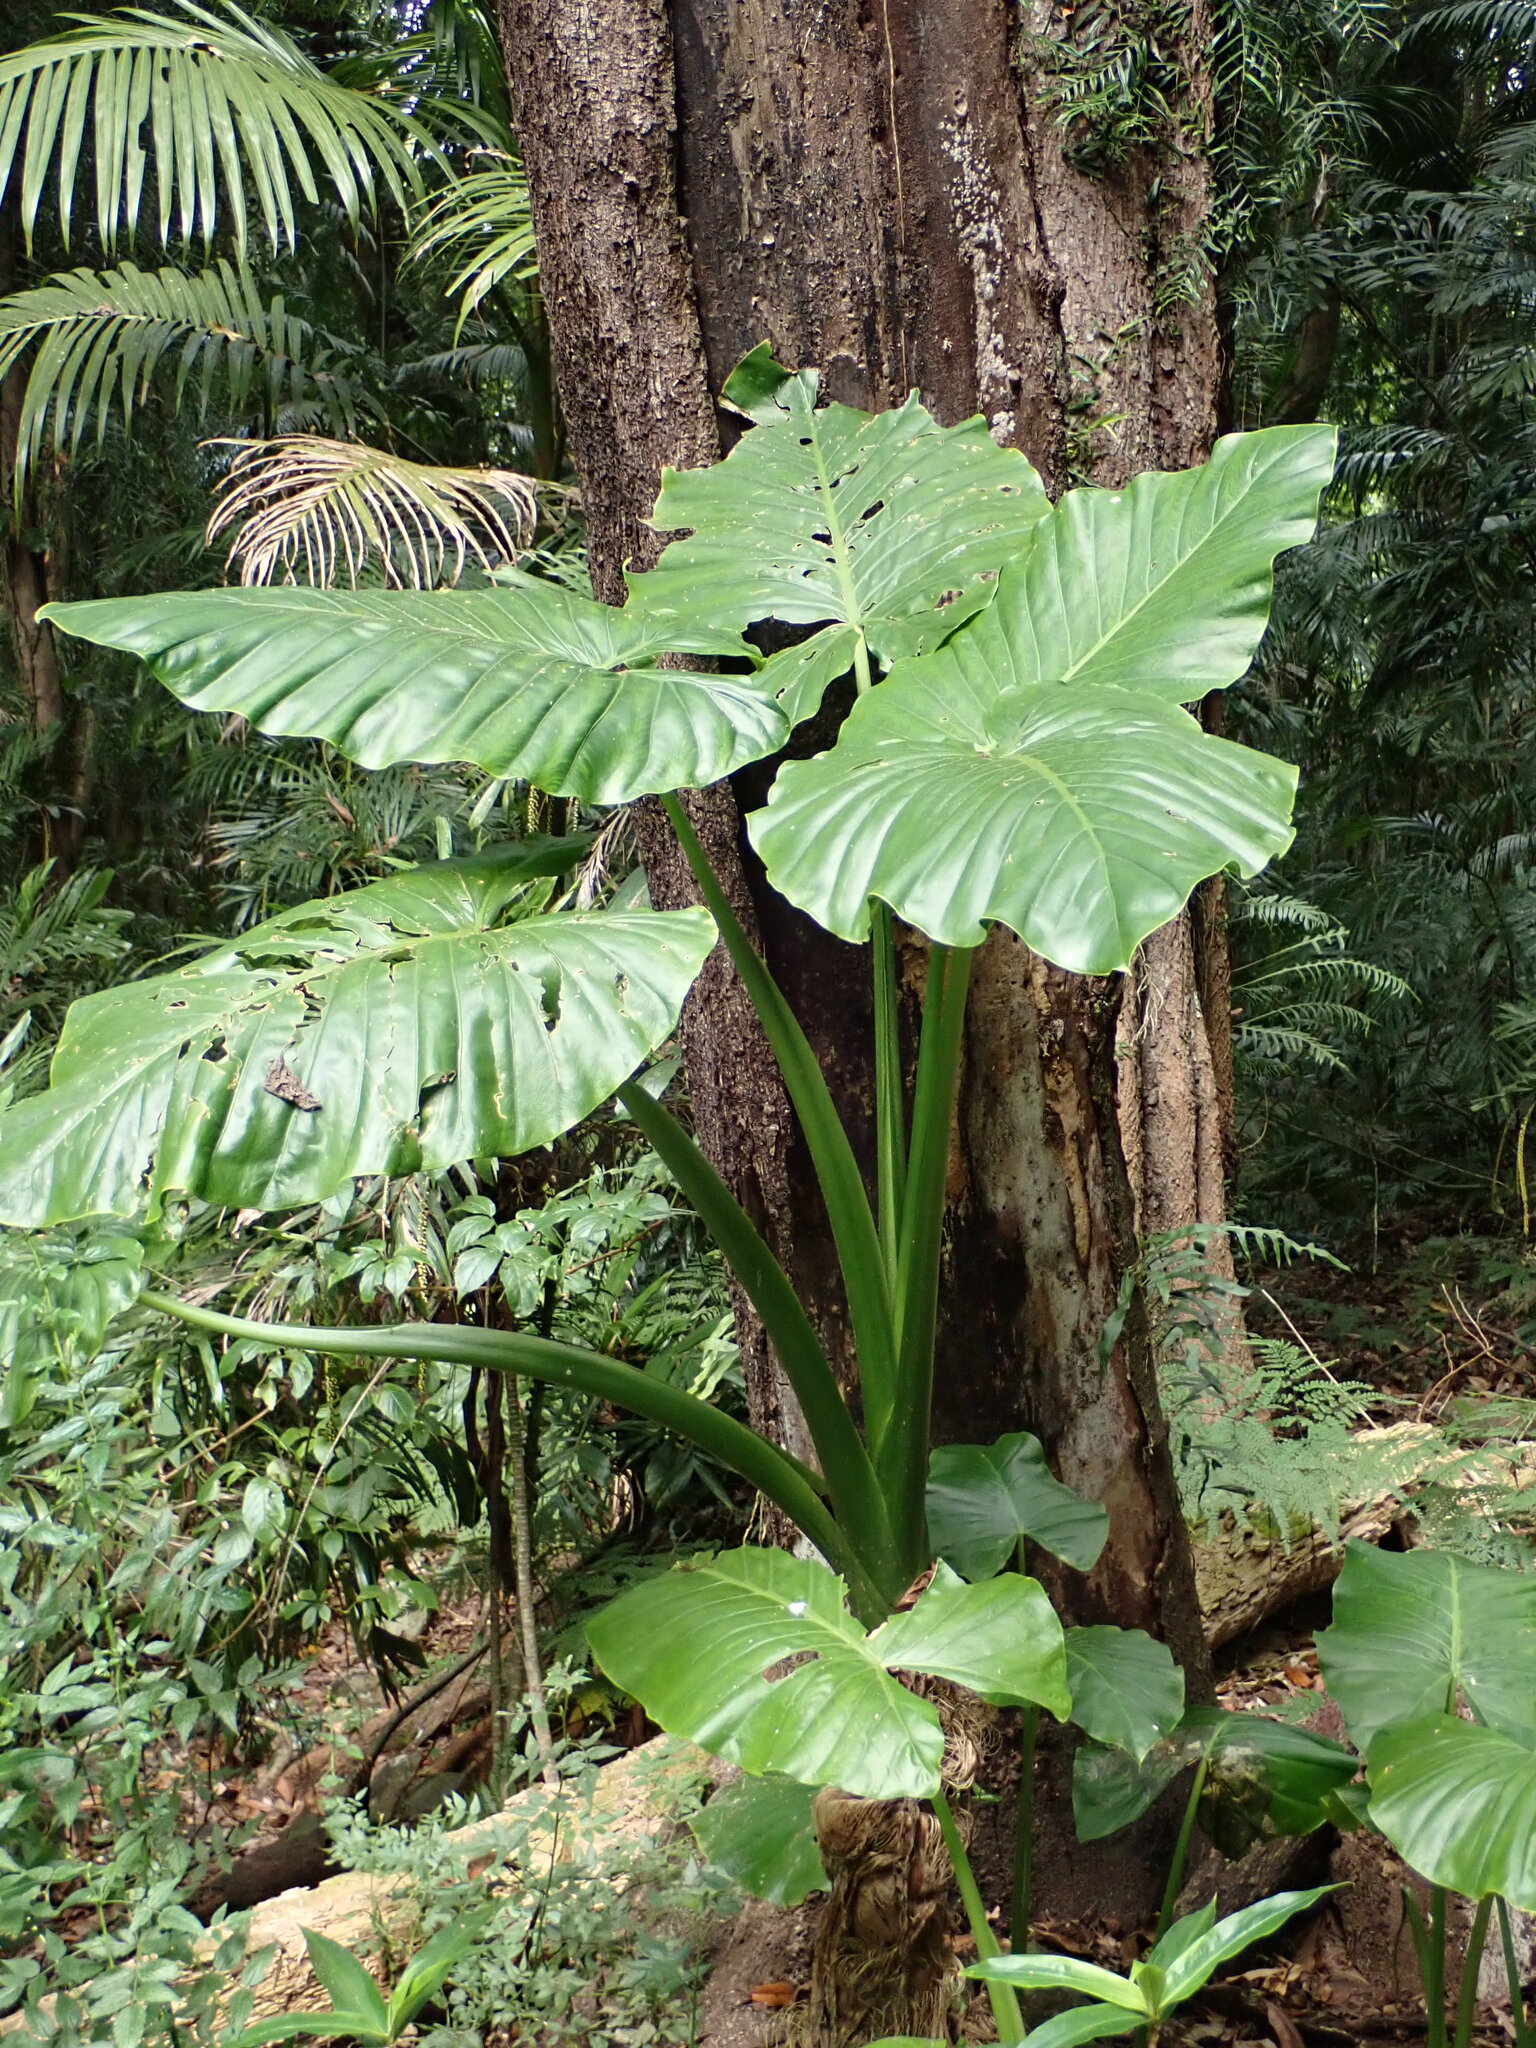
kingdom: Plantae
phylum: Tracheophyta
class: Liliopsida
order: Alismatales
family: Araceae
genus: Alocasia
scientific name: Alocasia brisbanensis
